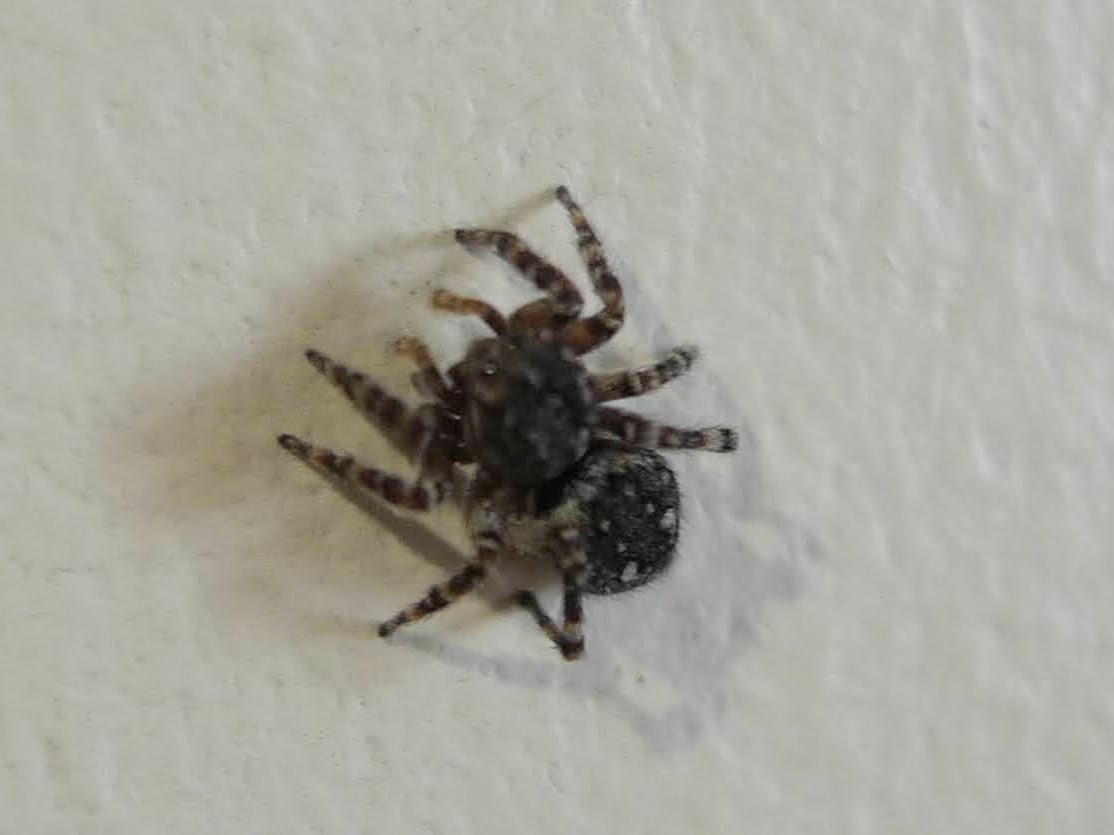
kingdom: Animalia
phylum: Arthropoda
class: Arachnida
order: Araneae
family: Salticidae
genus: Attulus
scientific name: Attulus pubescens
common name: Jumping spider
